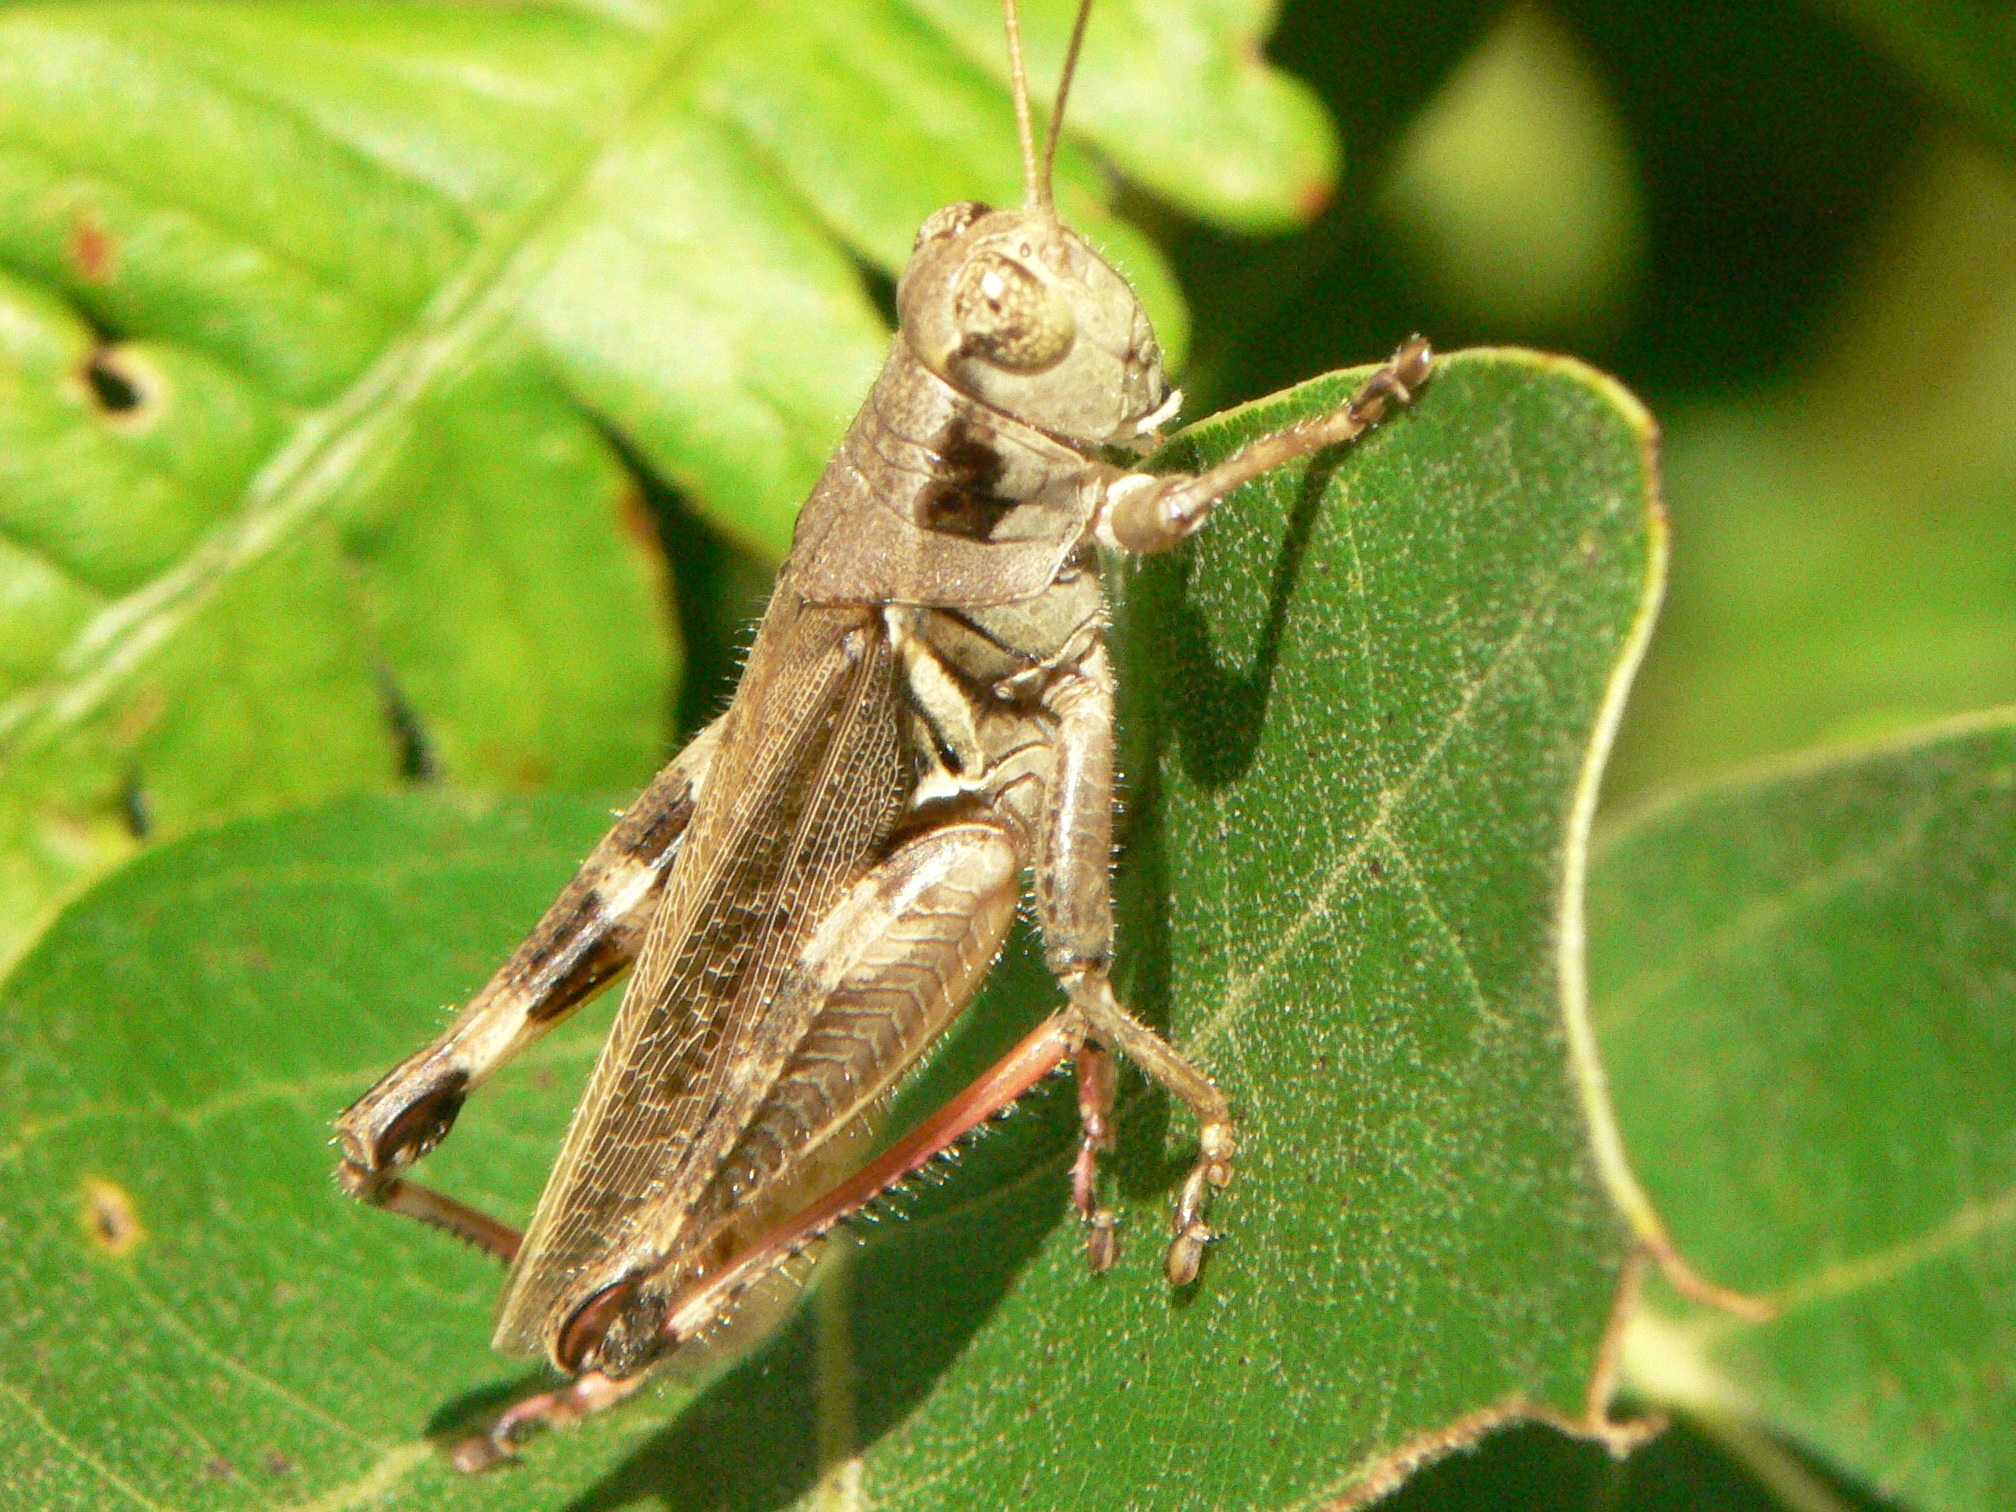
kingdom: Animalia
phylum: Arthropoda
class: Insecta
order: Orthoptera
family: Acrididae
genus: Melanoplus
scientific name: Melanoplus keeleri
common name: Keeler grasshopper
